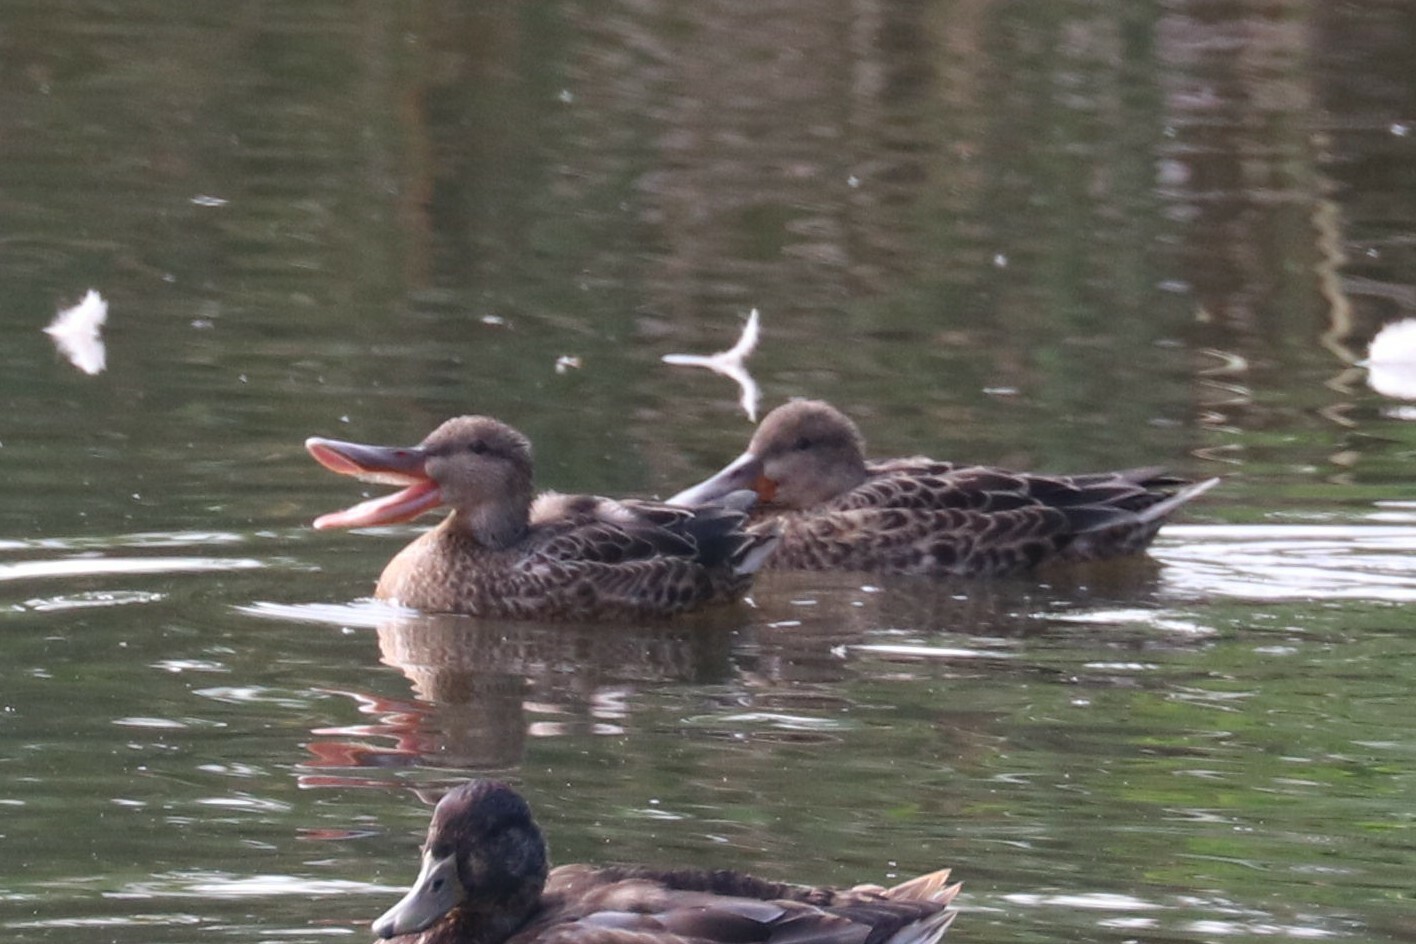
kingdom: Animalia
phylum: Chordata
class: Aves
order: Anseriformes
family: Anatidae
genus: Spatula
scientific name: Spatula clypeata
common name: Northern shoveler
